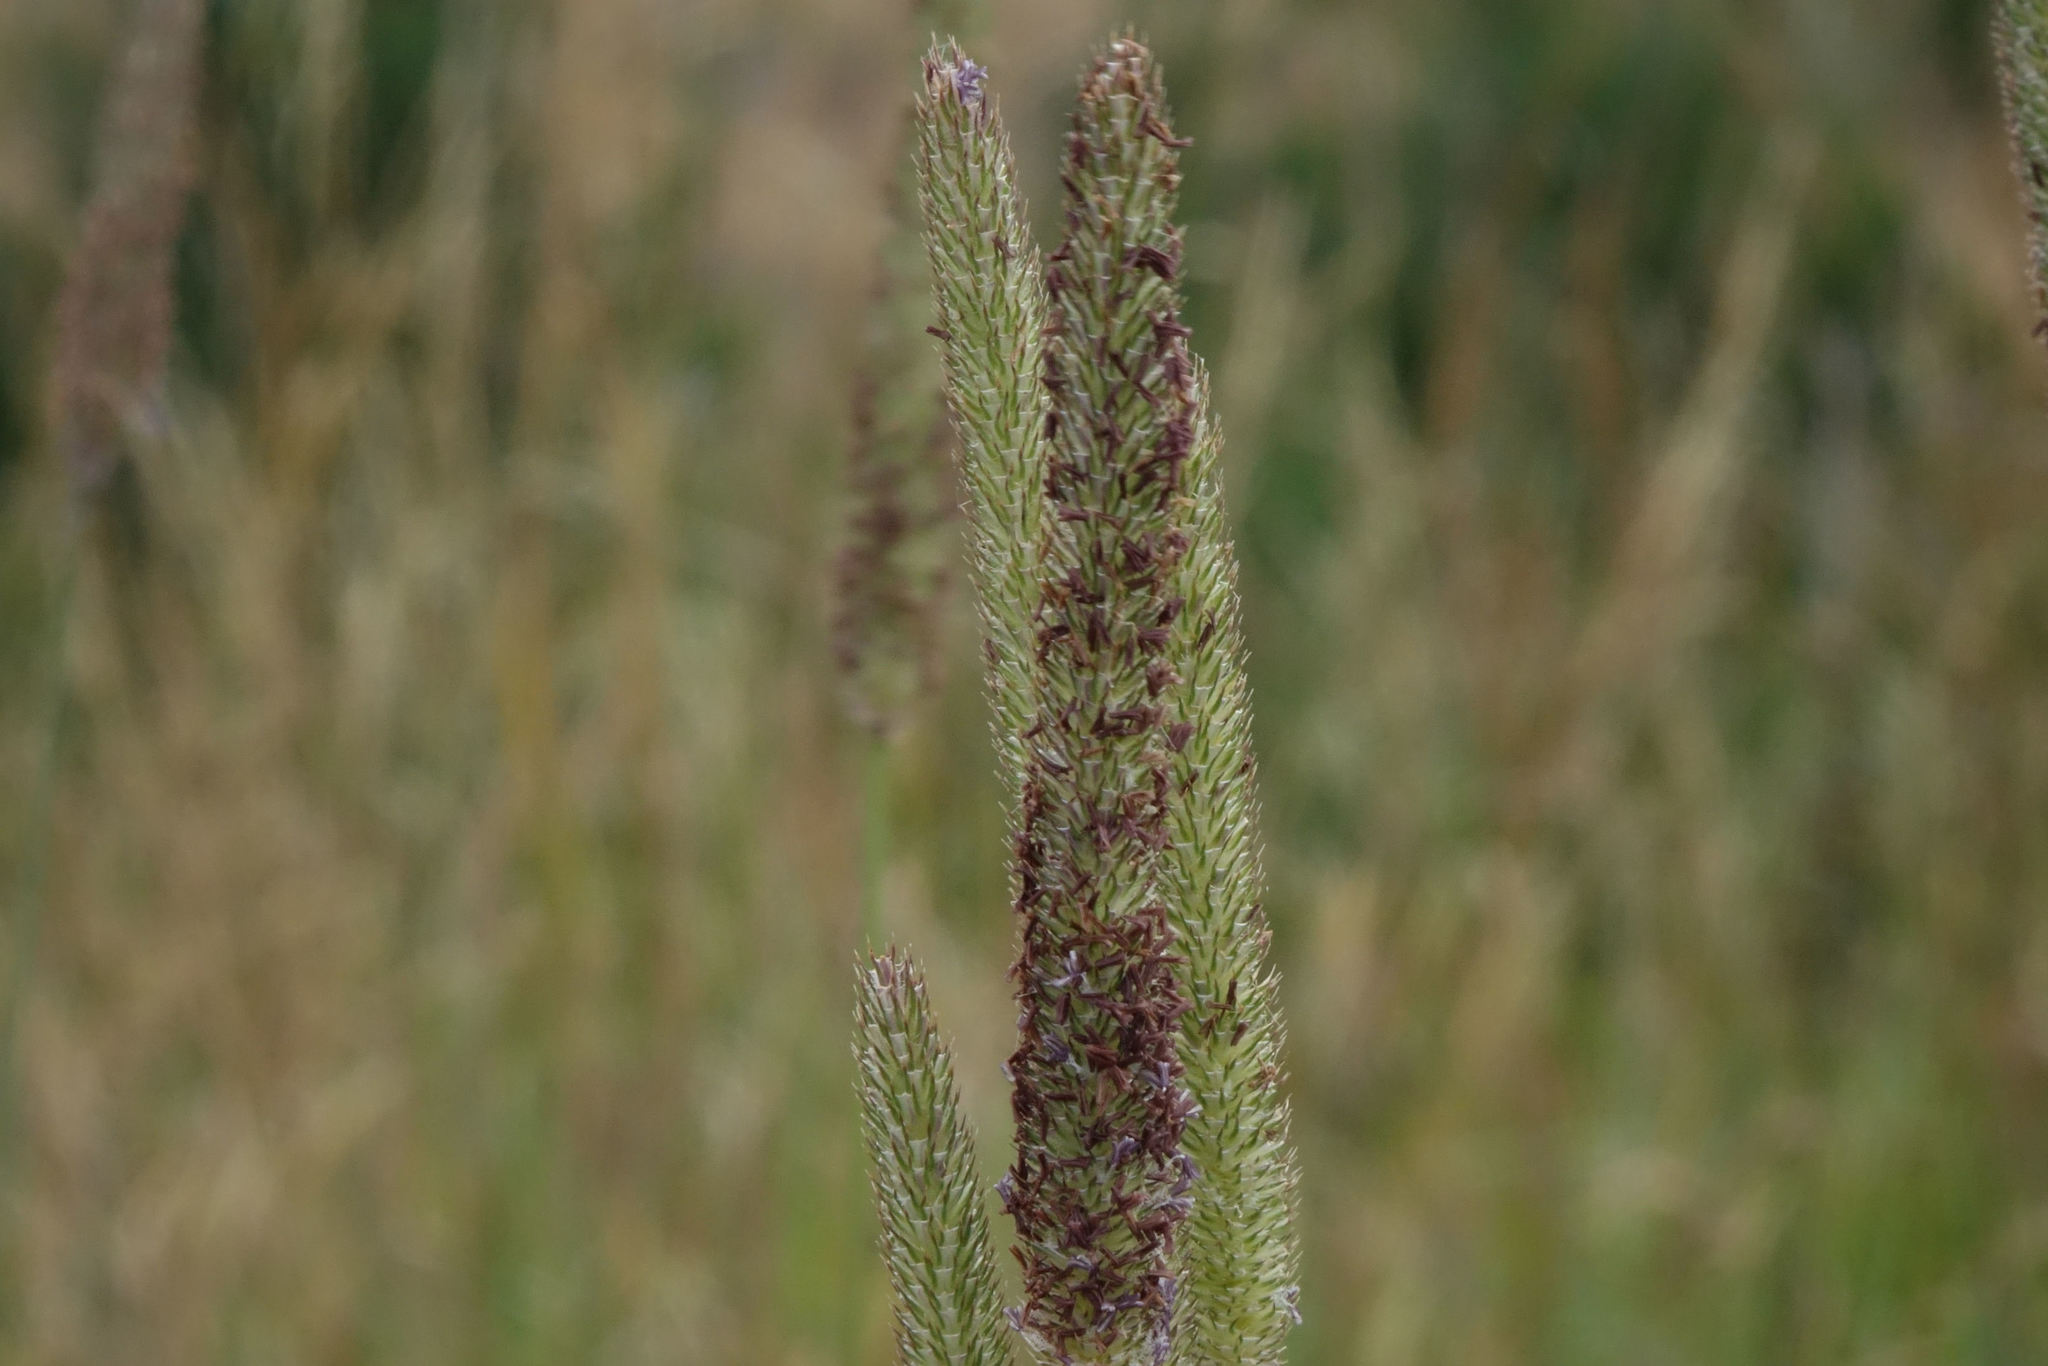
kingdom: Plantae
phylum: Tracheophyta
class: Liliopsida
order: Poales
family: Poaceae
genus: Phleum
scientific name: Phleum pratense
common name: Timothy grass
